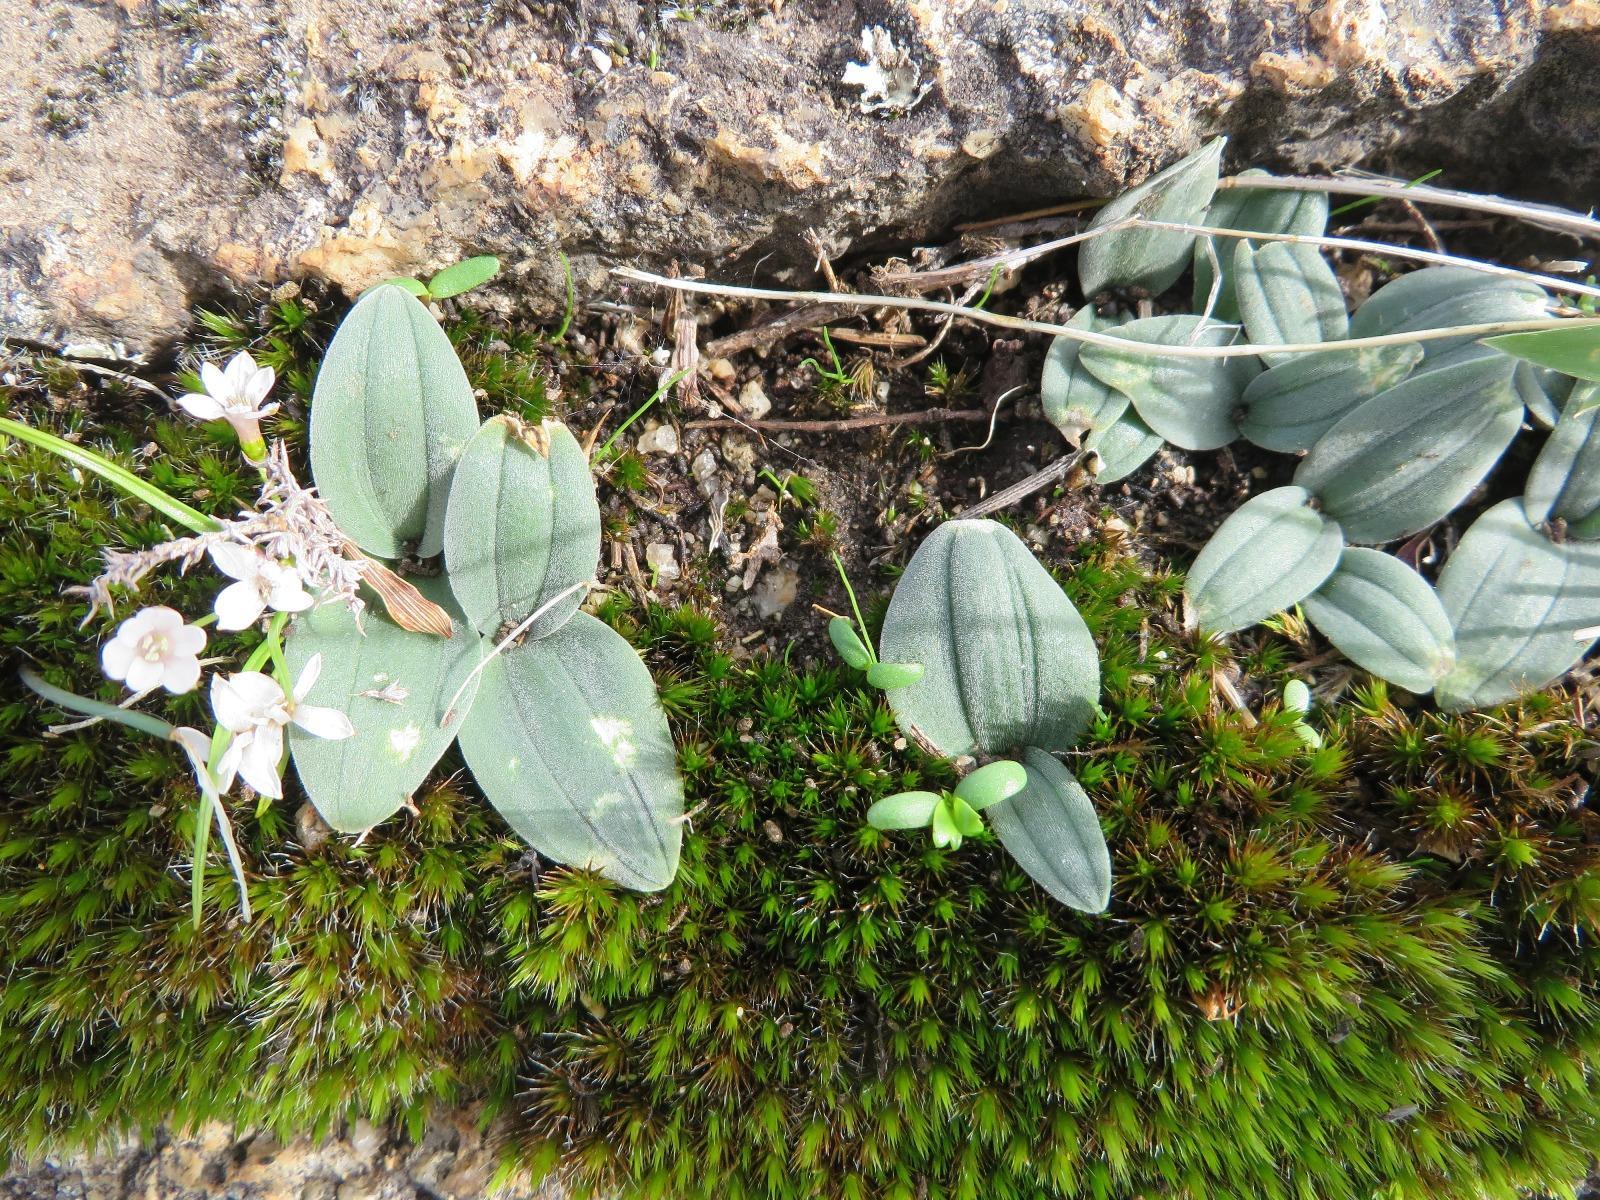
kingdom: Plantae
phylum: Tracheophyta
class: Liliopsida
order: Asparagales
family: Asparagaceae
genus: Drimia
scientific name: Drimia platyphylla
